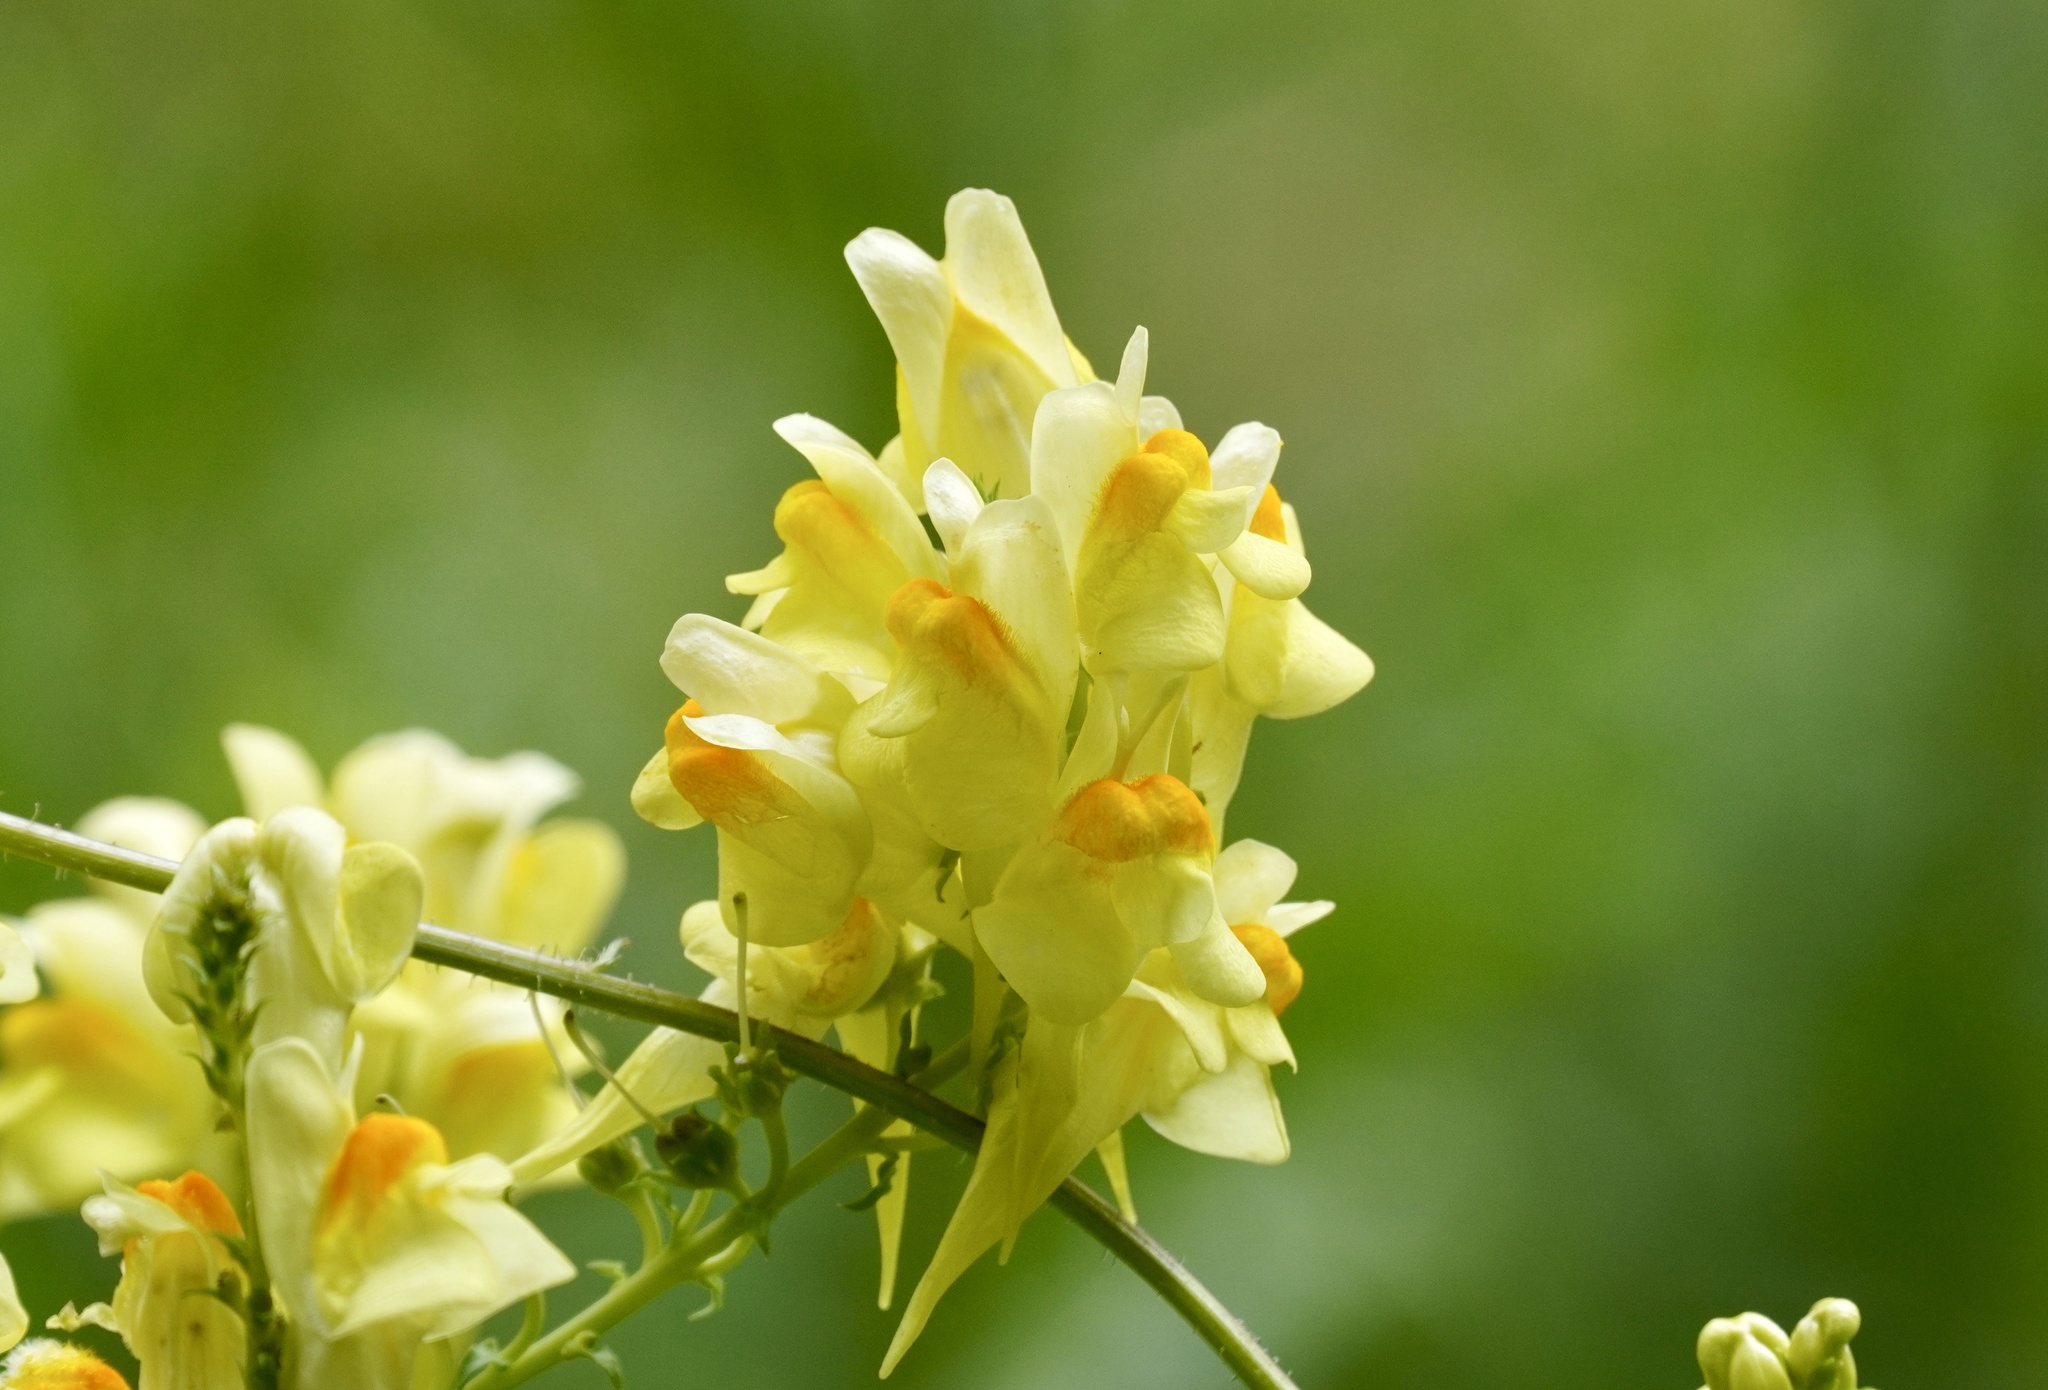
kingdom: Plantae
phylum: Tracheophyta
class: Magnoliopsida
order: Lamiales
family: Plantaginaceae
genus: Linaria
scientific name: Linaria vulgaris
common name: Butter and eggs
